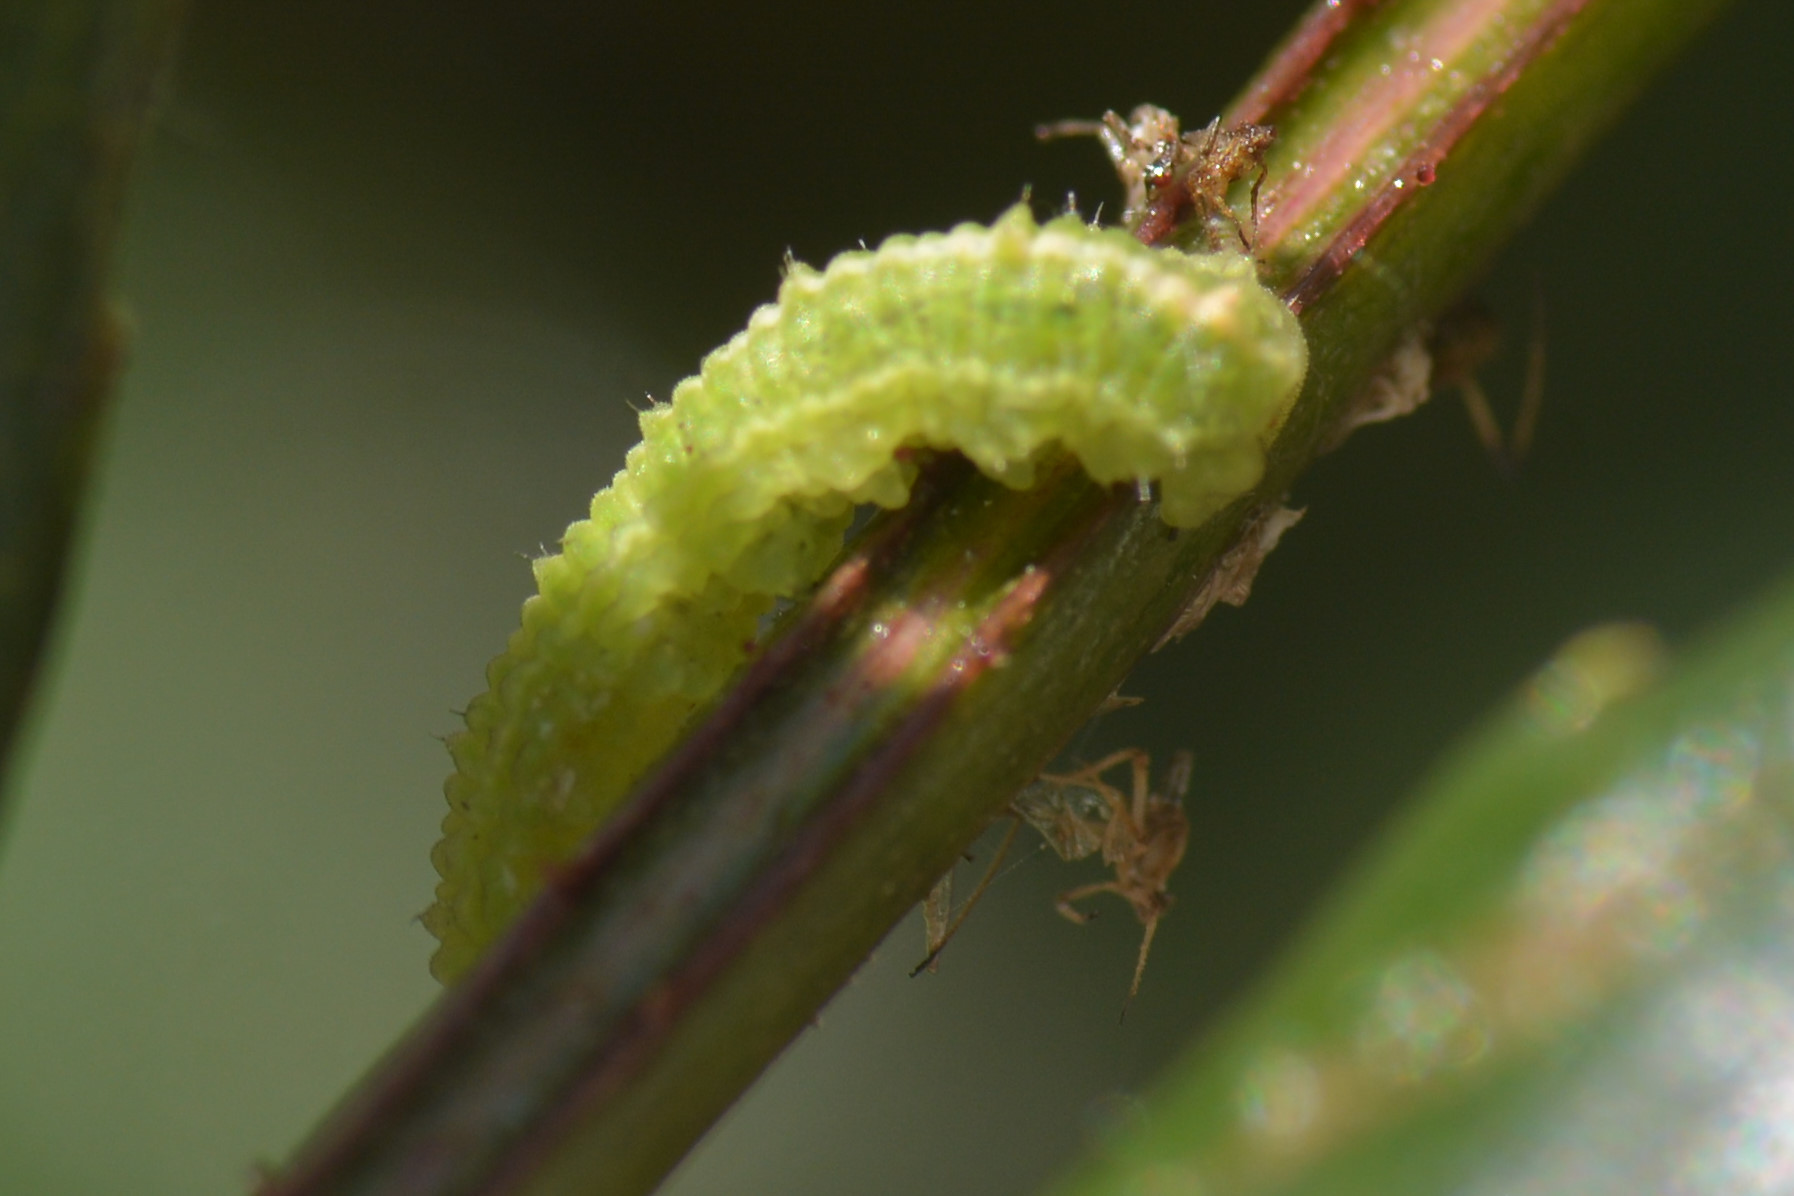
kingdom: Animalia
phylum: Arthropoda
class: Insecta
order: Diptera
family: Syrphidae
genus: Scaeva
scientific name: Scaeva pyrastri
